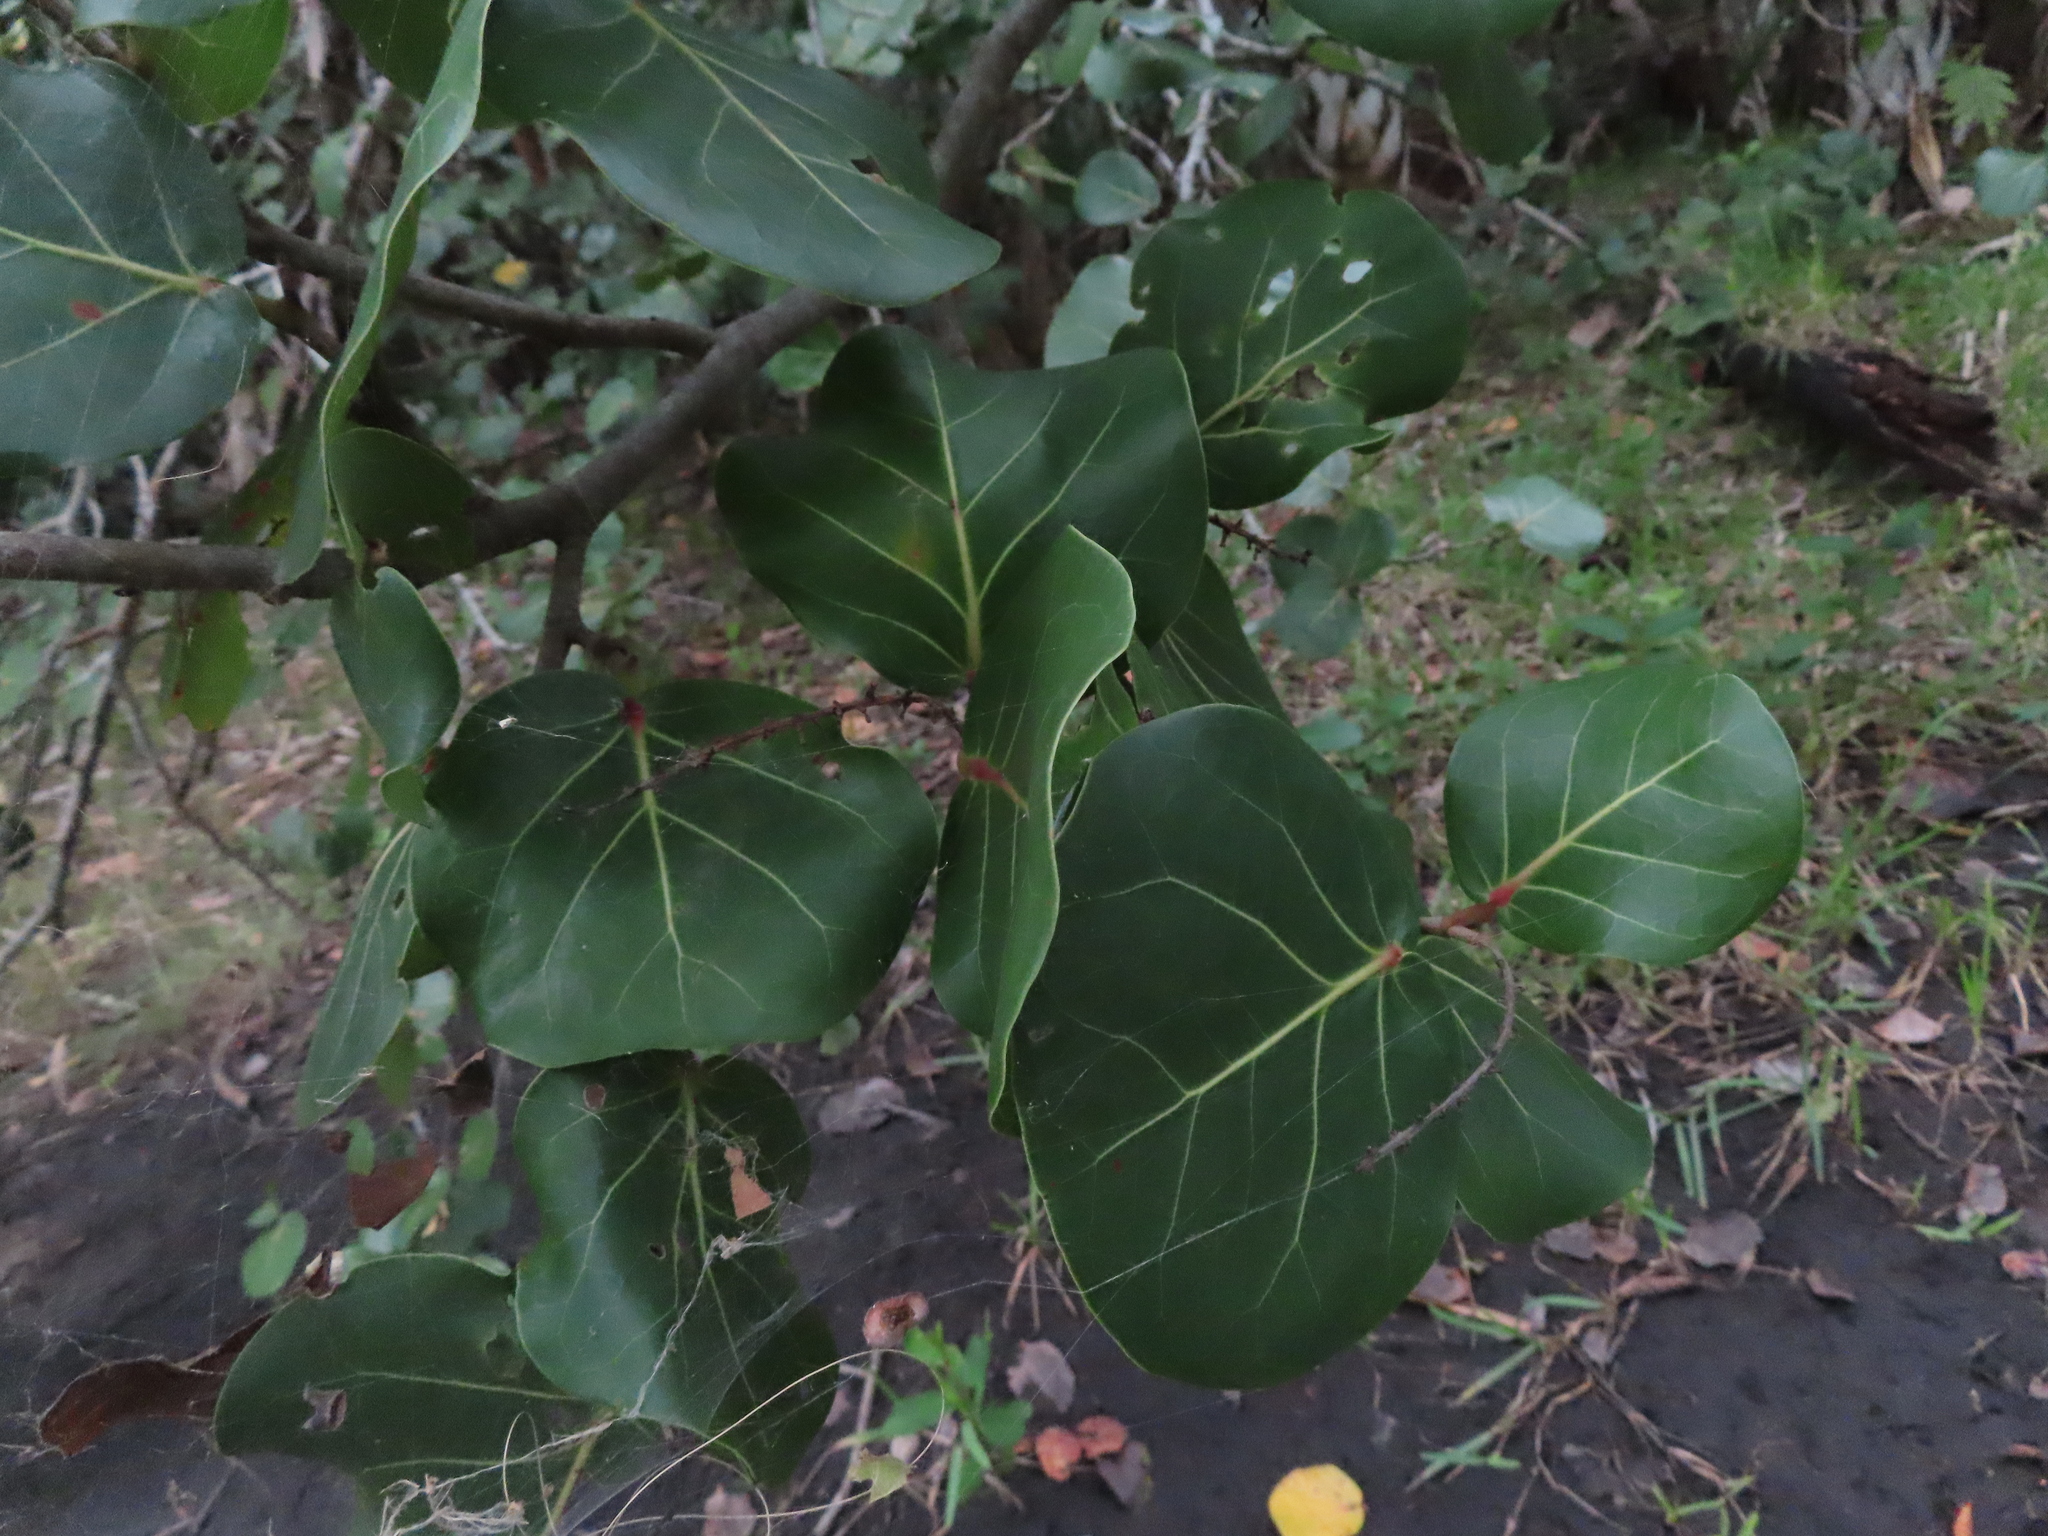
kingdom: Plantae
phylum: Tracheophyta
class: Magnoliopsida
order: Caryophyllales
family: Polygonaceae
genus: Coccoloba
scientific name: Coccoloba uvifera
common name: Seagrape
